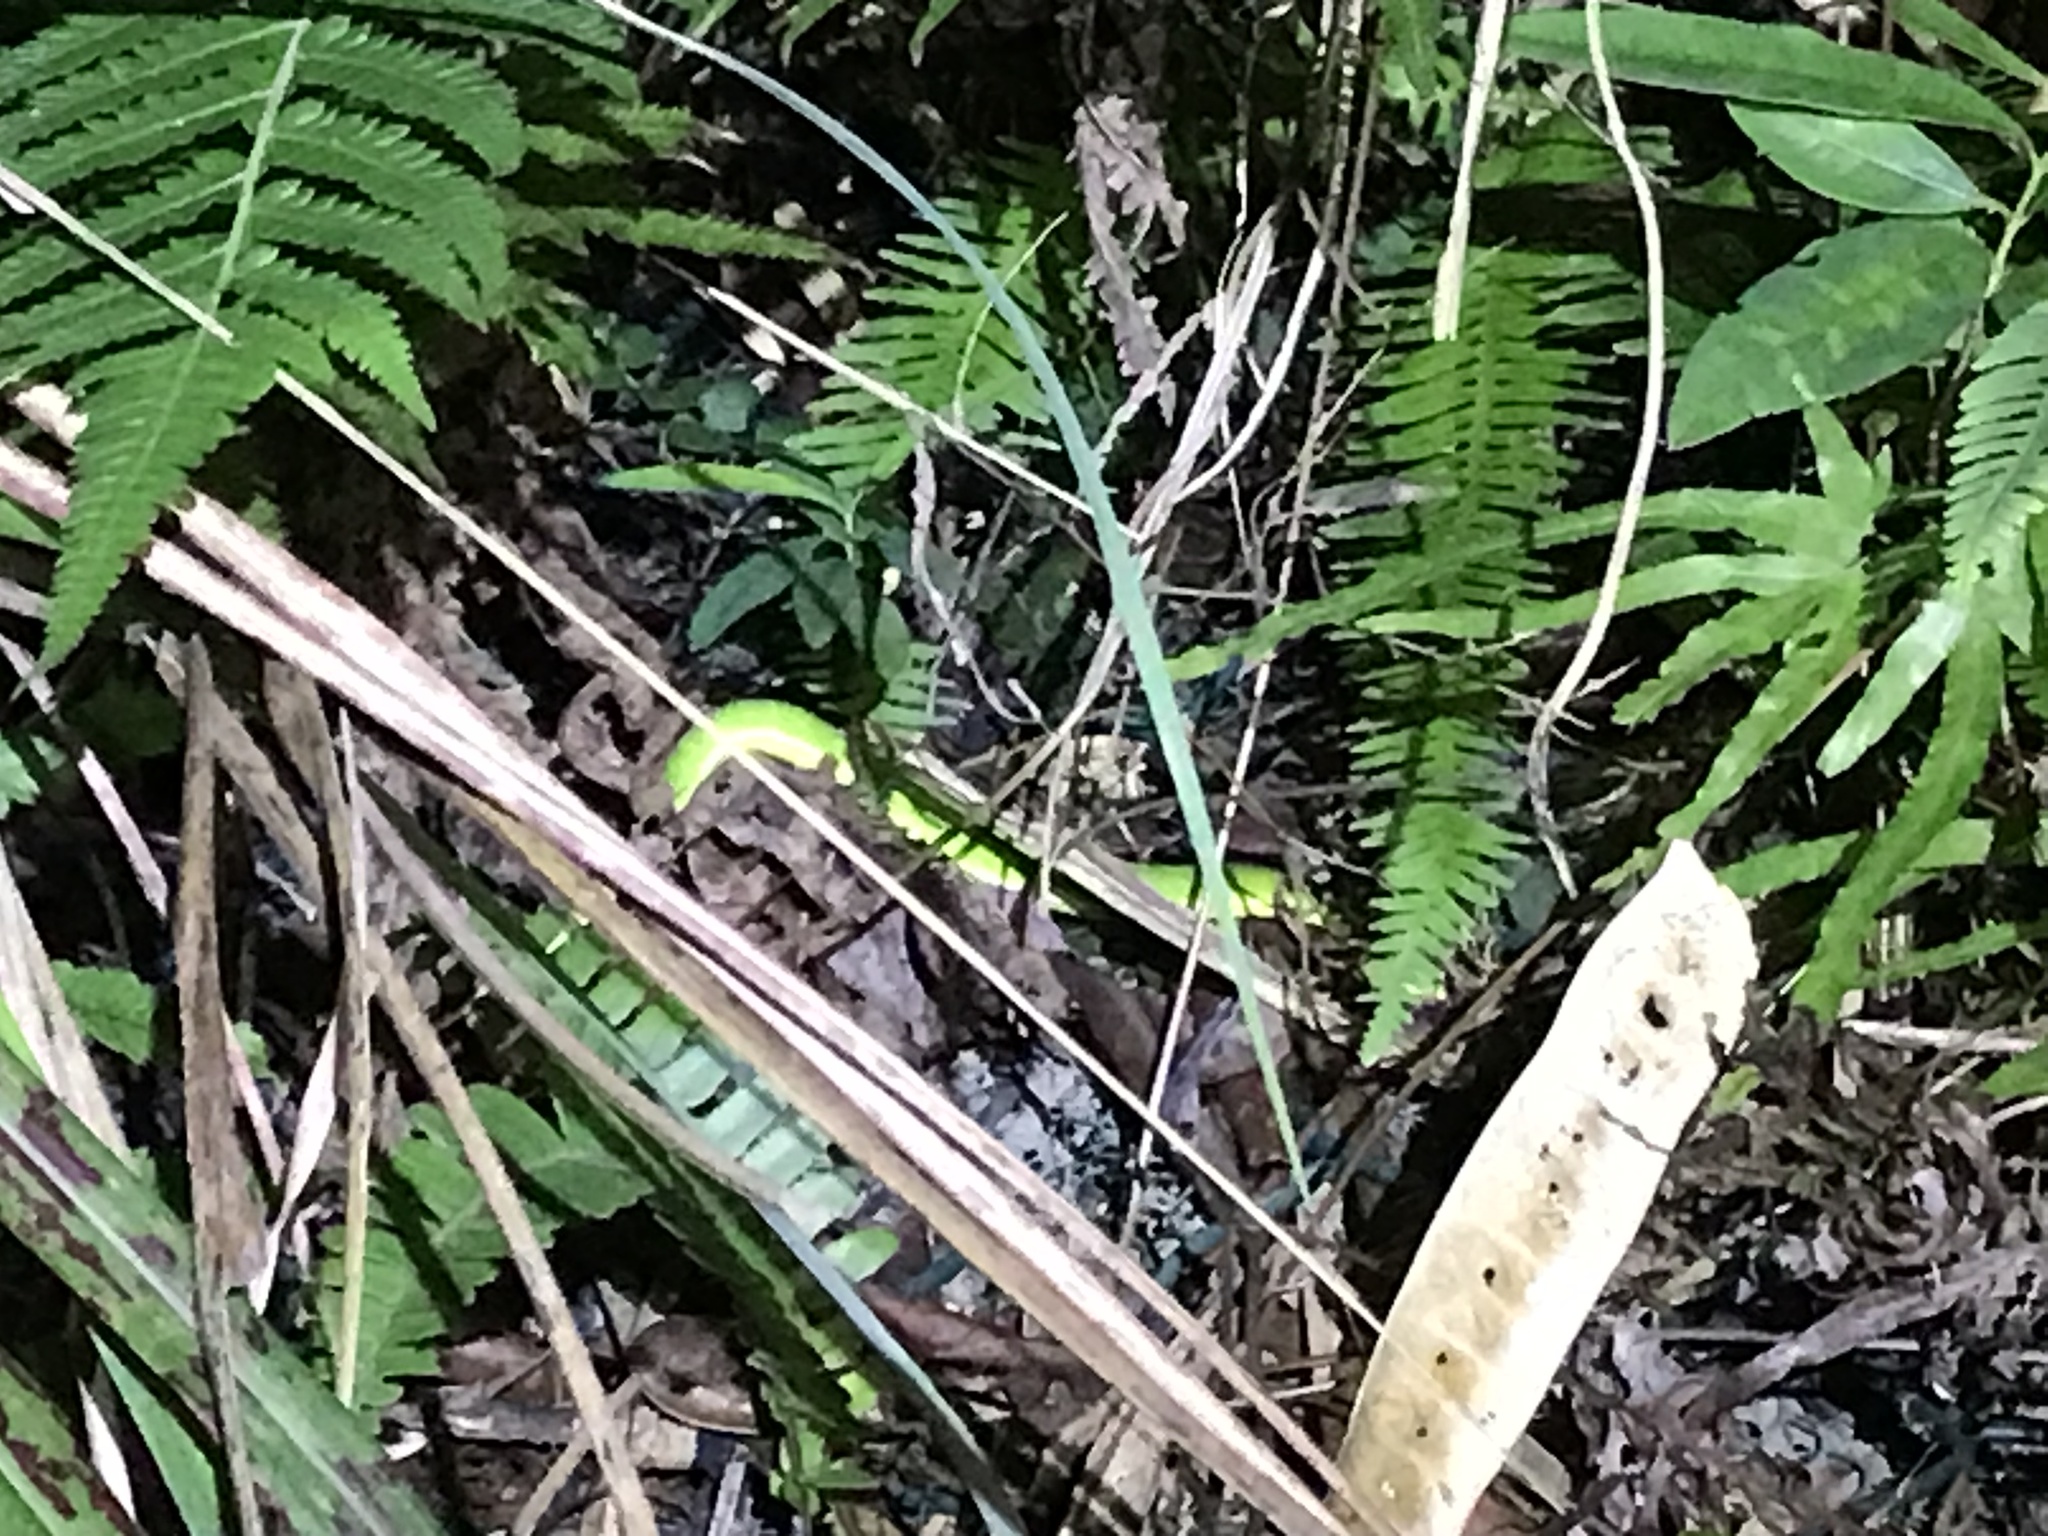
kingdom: Animalia
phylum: Chordata
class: Squamata
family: Viperidae
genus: Trimeresurus
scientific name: Trimeresurus albolabris
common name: White-lipped pitviper
